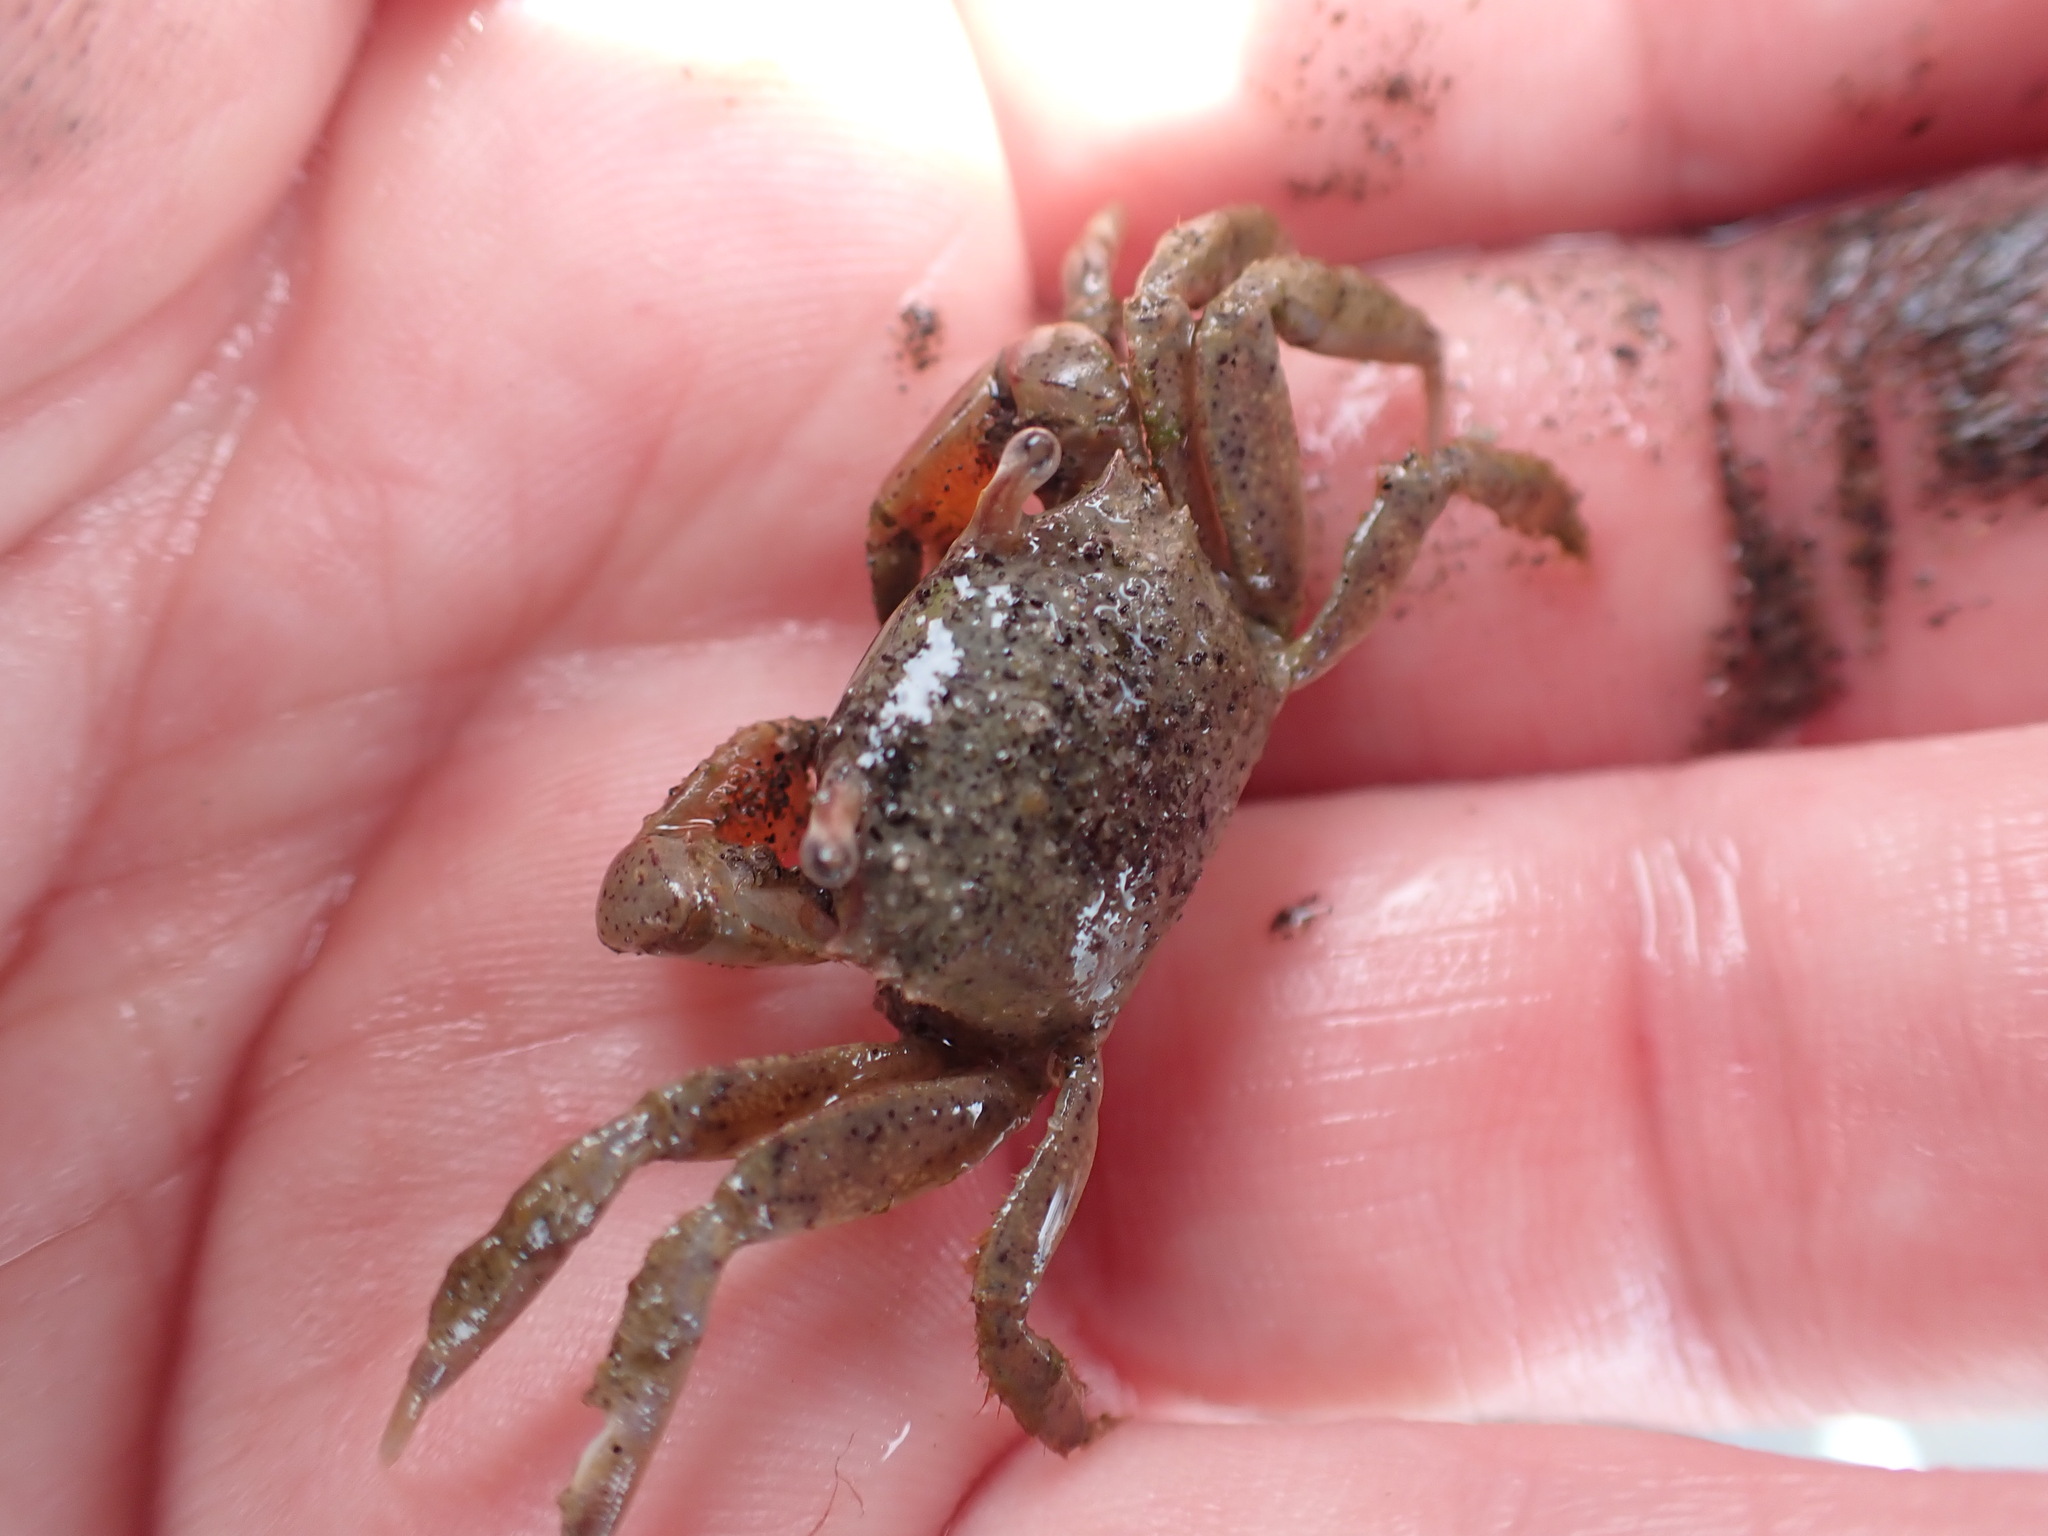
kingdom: Animalia
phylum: Arthropoda
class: Malacostraca
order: Decapoda
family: Macrophthalmidae
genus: Hemiplax
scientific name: Hemiplax hirtipes
